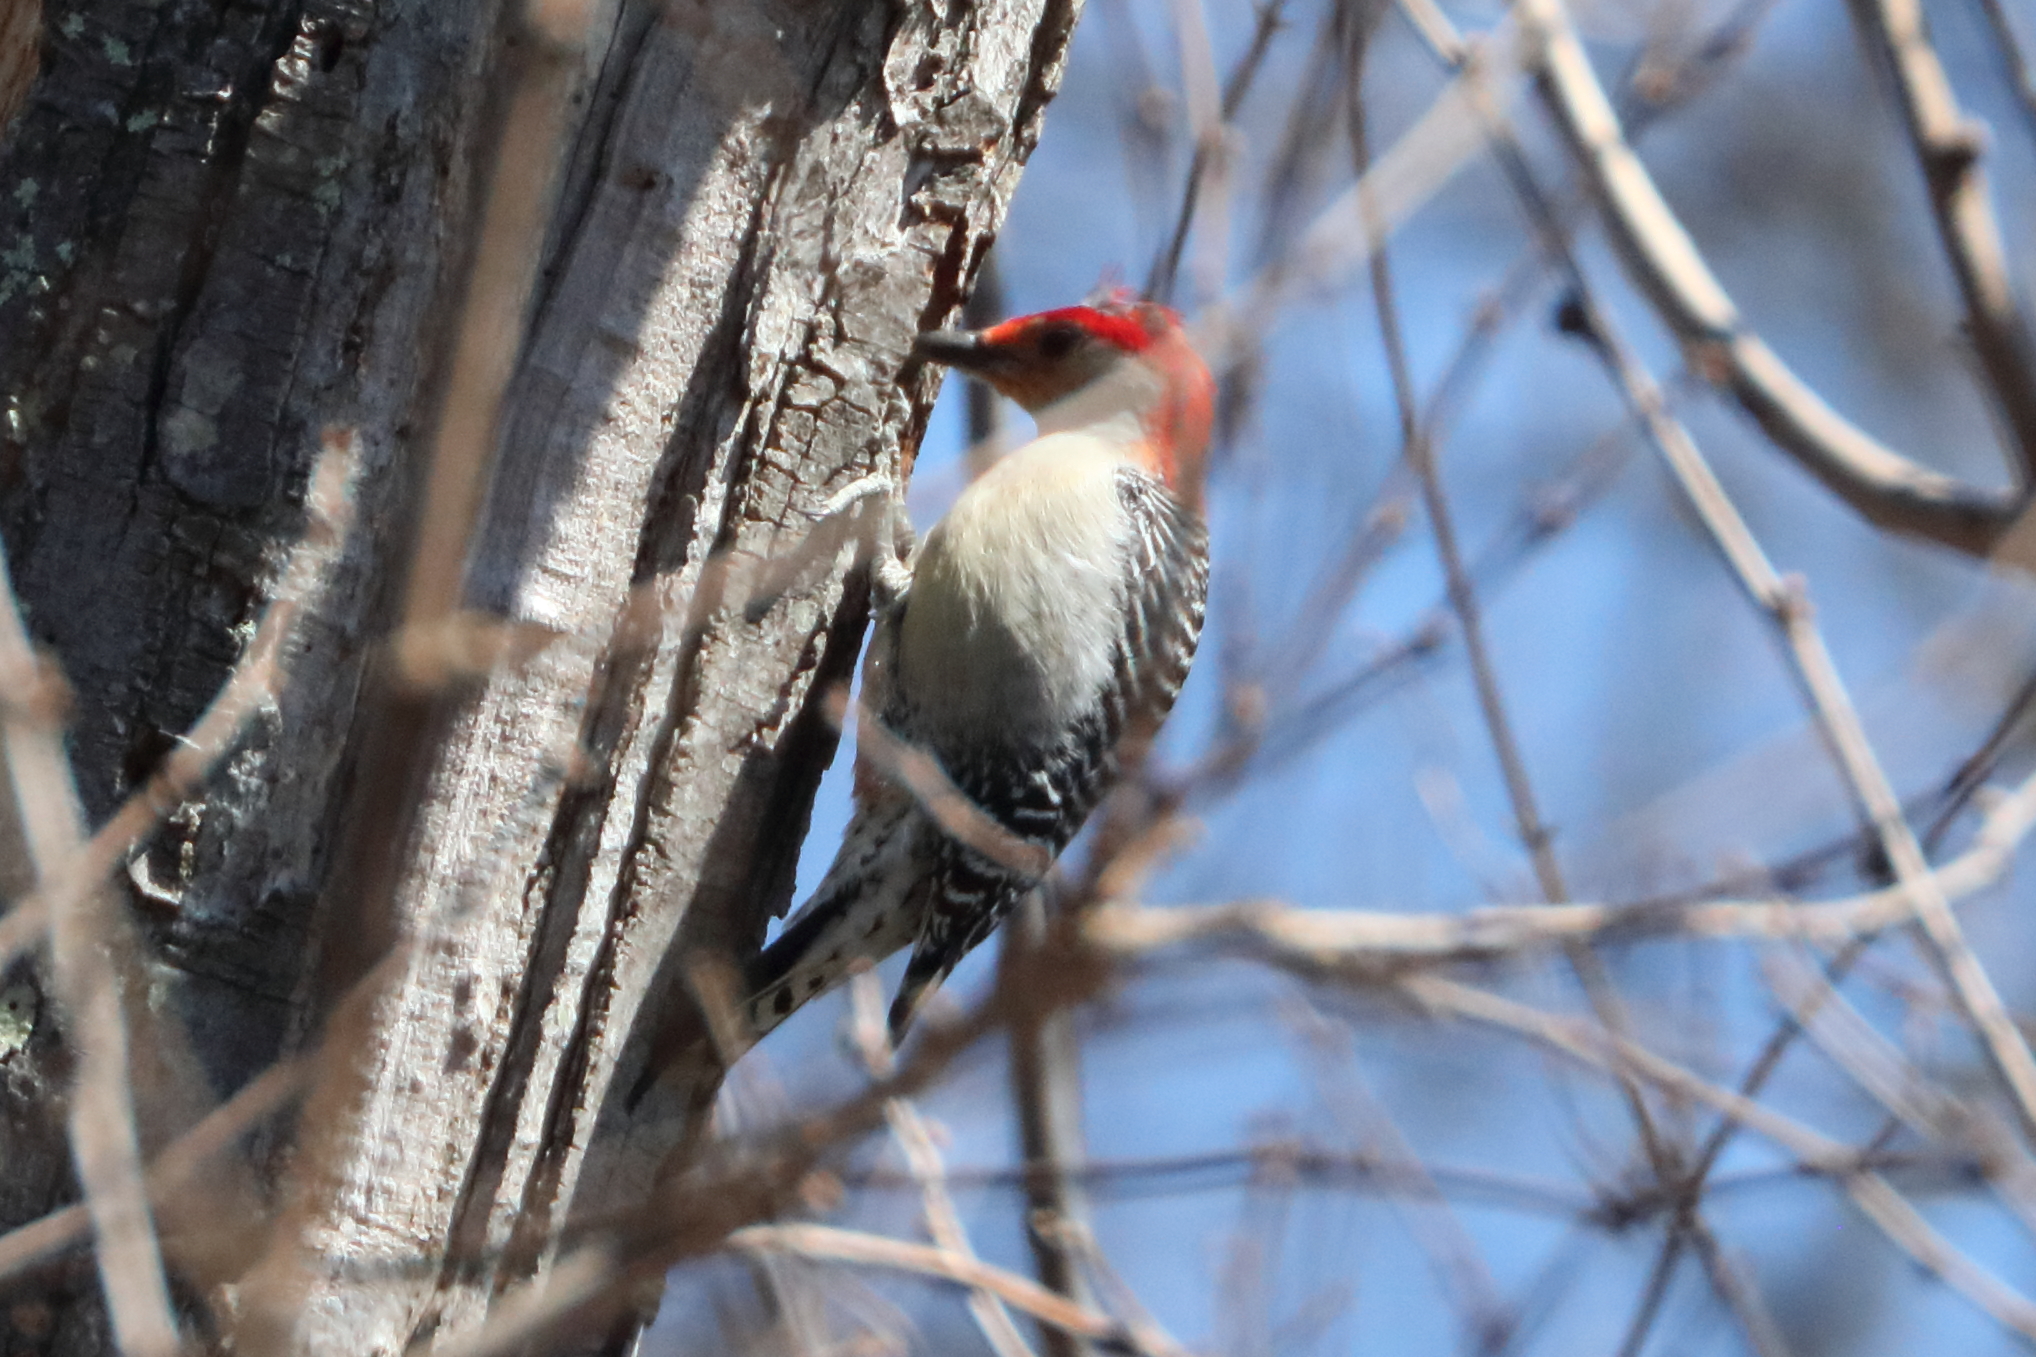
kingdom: Animalia
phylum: Chordata
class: Aves
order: Piciformes
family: Picidae
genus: Melanerpes
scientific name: Melanerpes carolinus
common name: Red-bellied woodpecker
